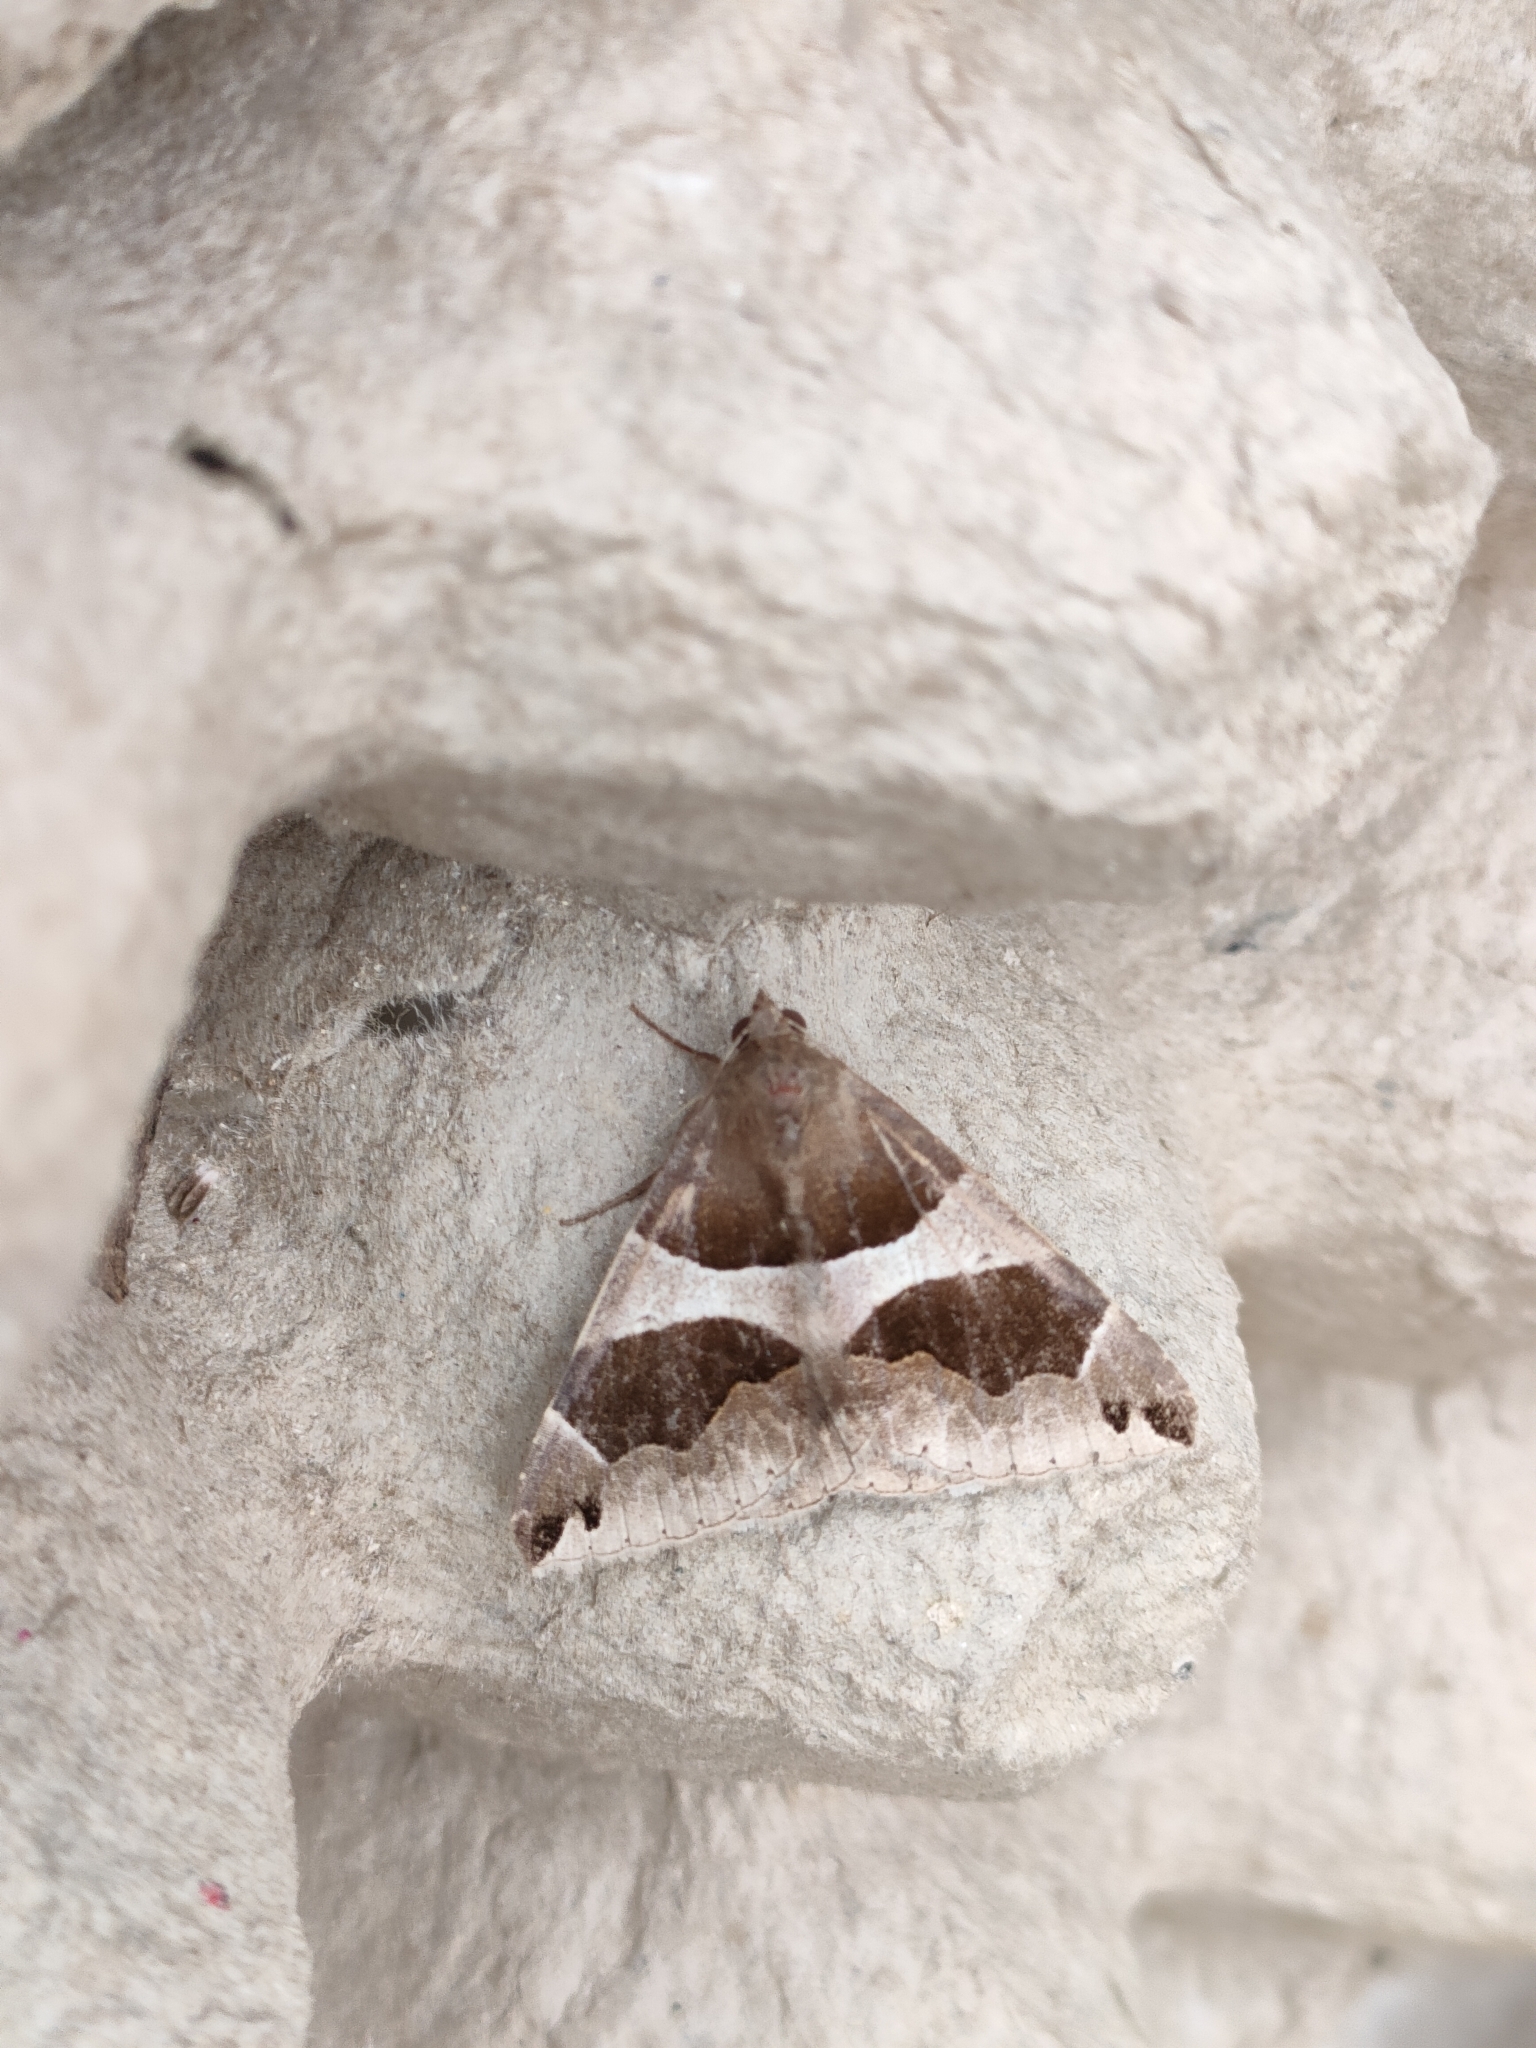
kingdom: Animalia
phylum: Arthropoda
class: Insecta
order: Lepidoptera
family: Erebidae
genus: Dysgonia
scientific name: Dysgonia algira
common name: Passenger
